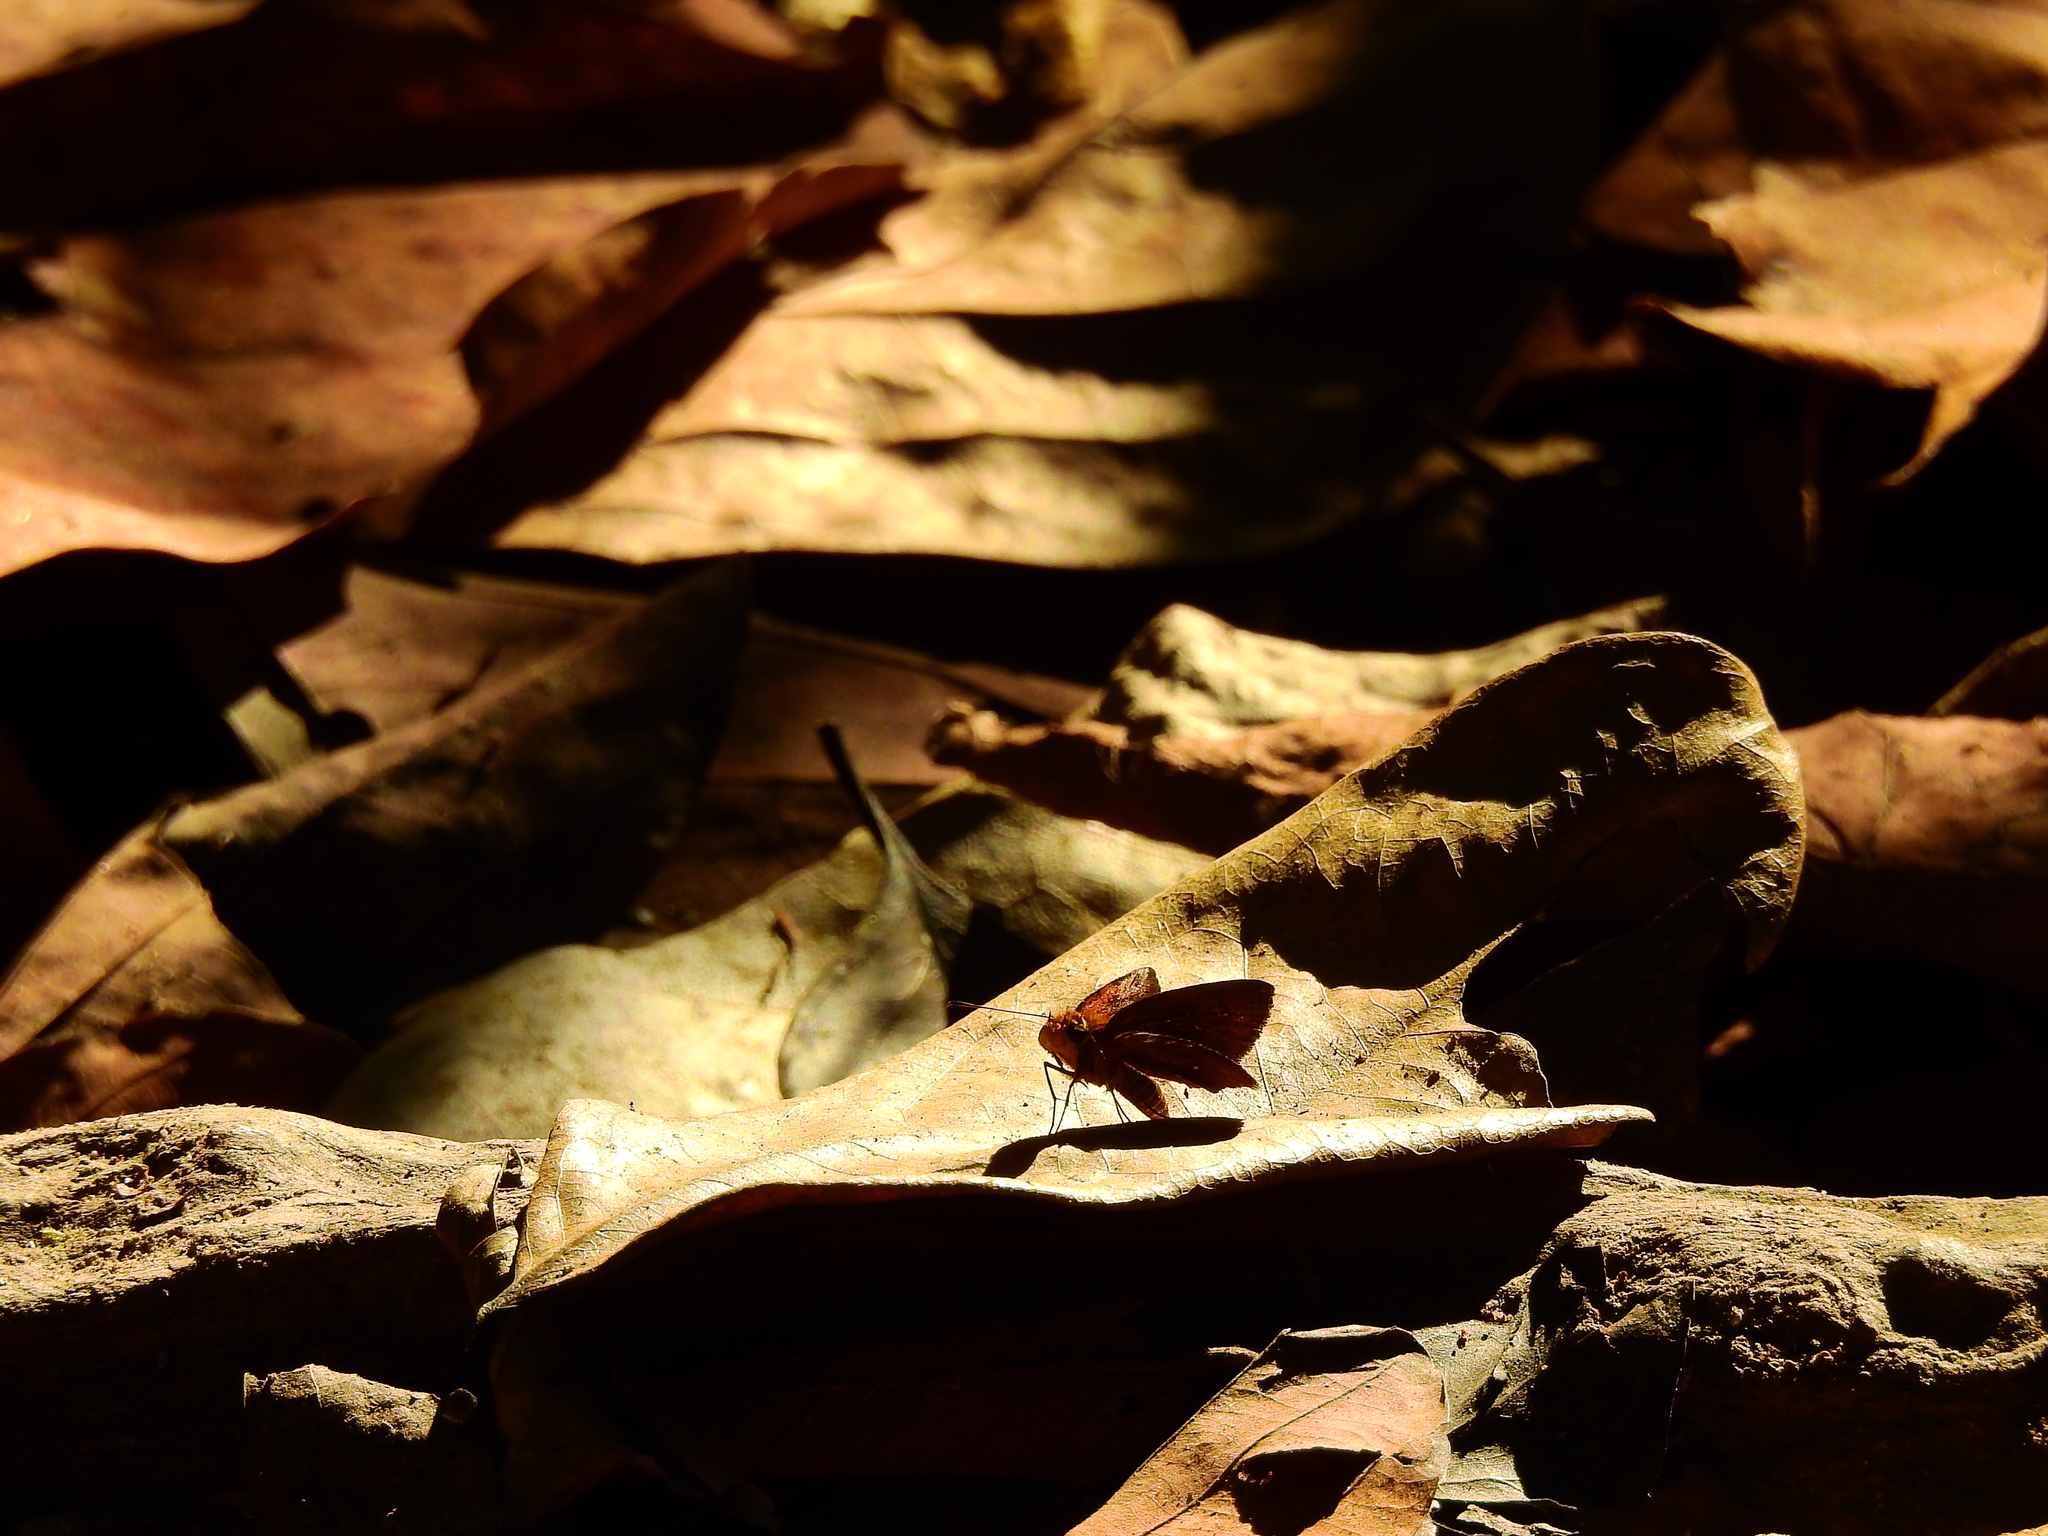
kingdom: Animalia
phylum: Arthropoda
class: Insecta
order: Lepidoptera
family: Hesperiidae
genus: Iambrix
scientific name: Iambrix salsala
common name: Chestnut bob
